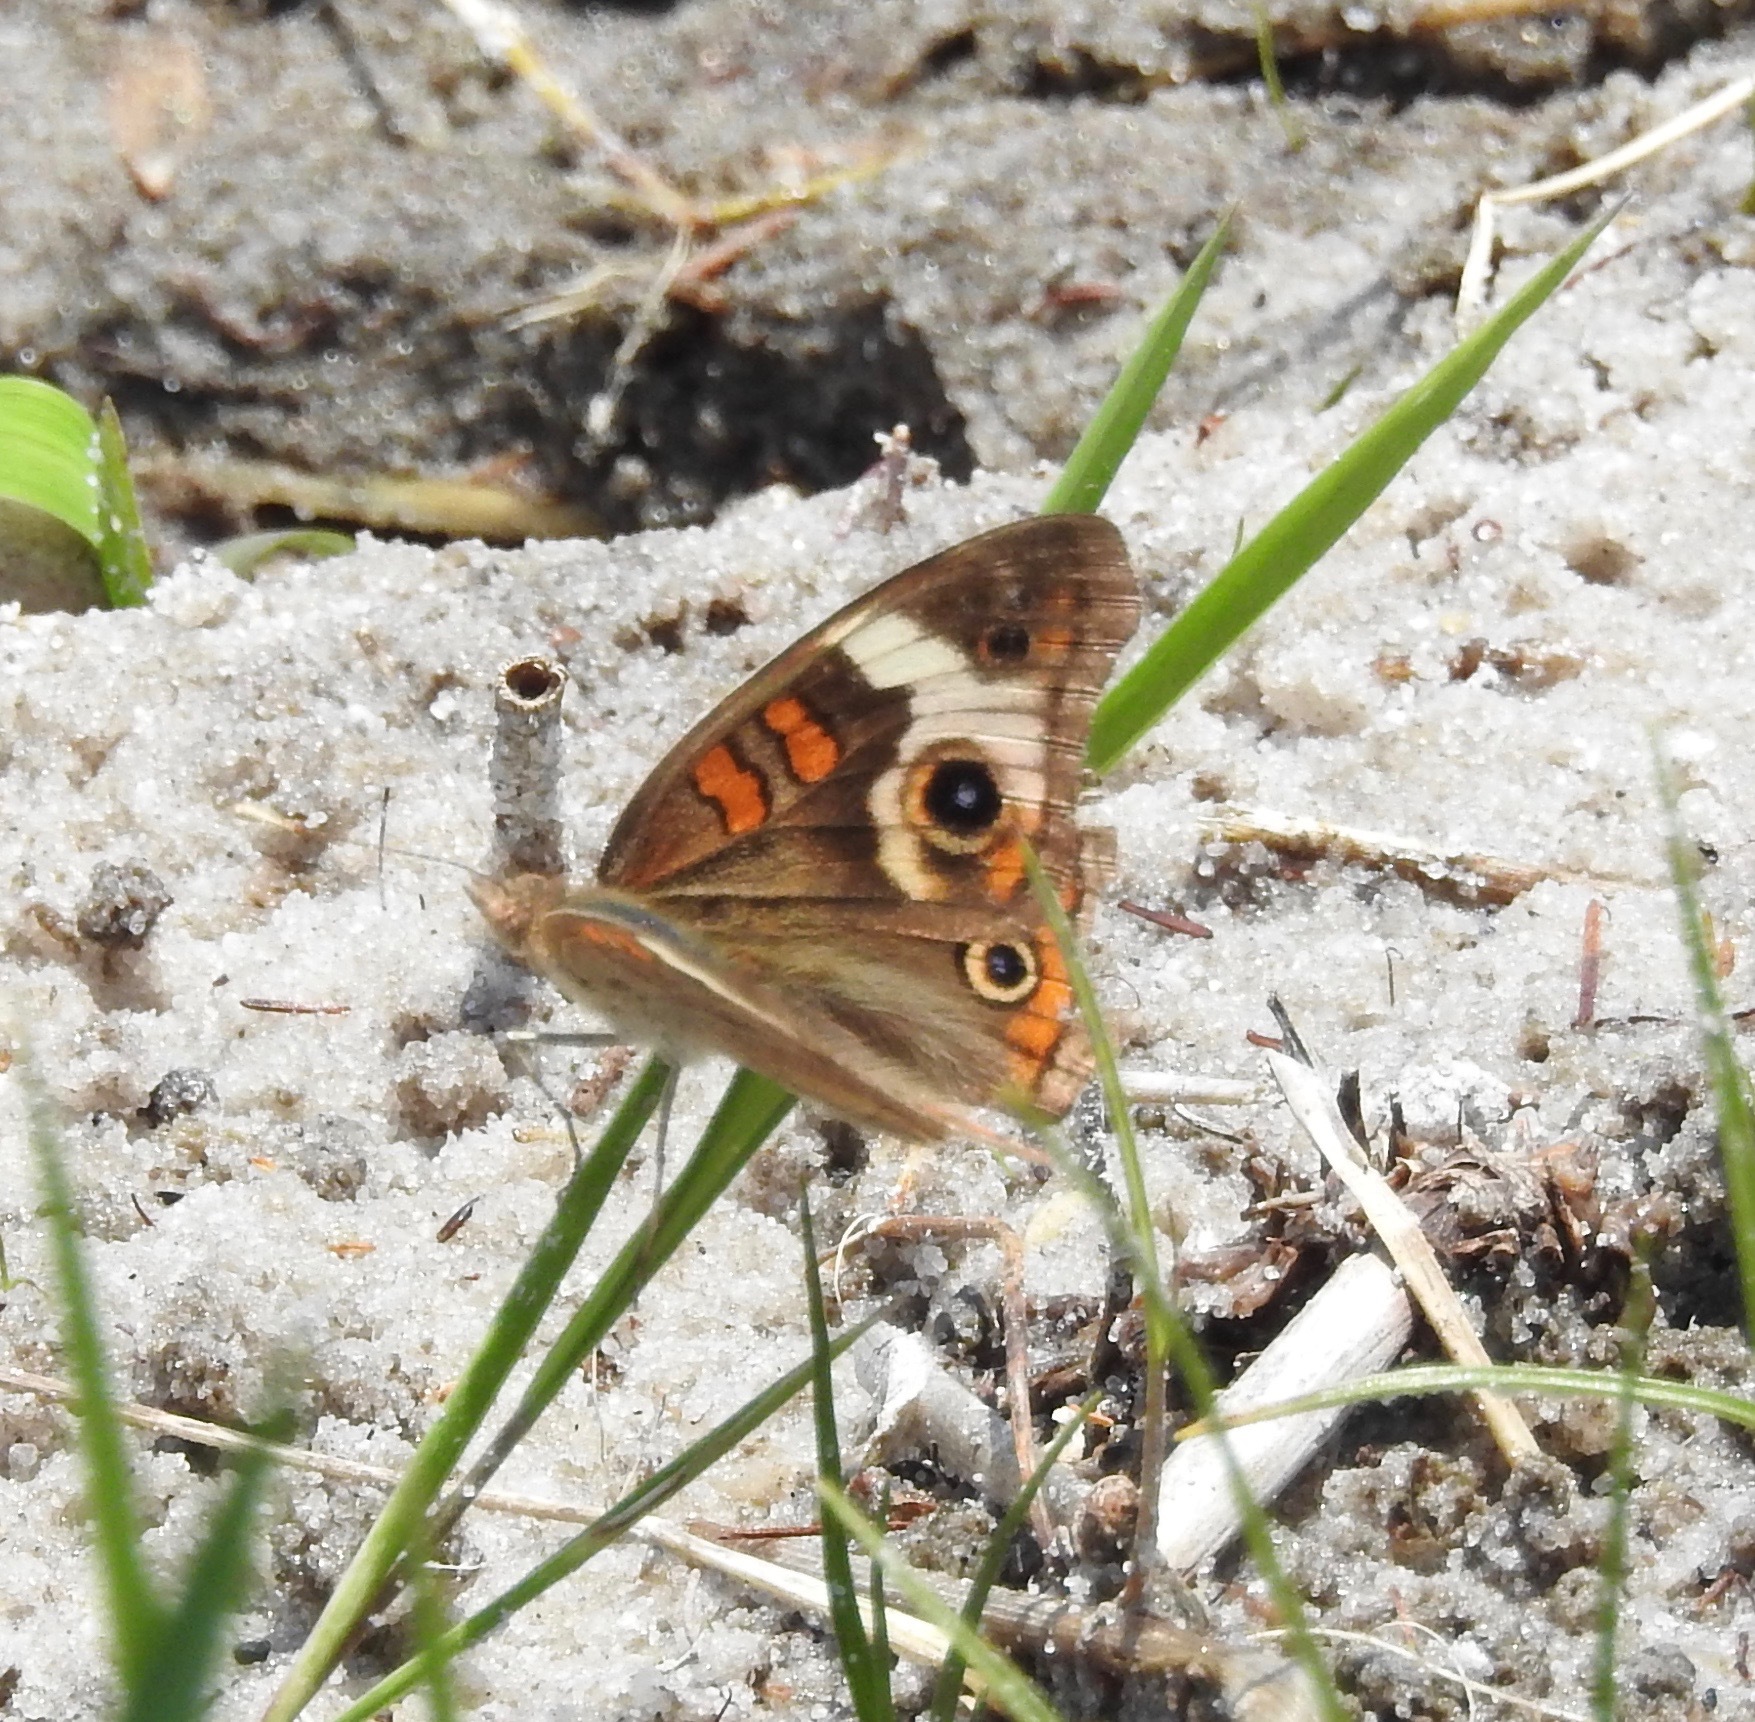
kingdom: Animalia
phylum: Arthropoda
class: Insecta
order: Lepidoptera
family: Nymphalidae
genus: Junonia
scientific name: Junonia coenia
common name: Common buckeye
